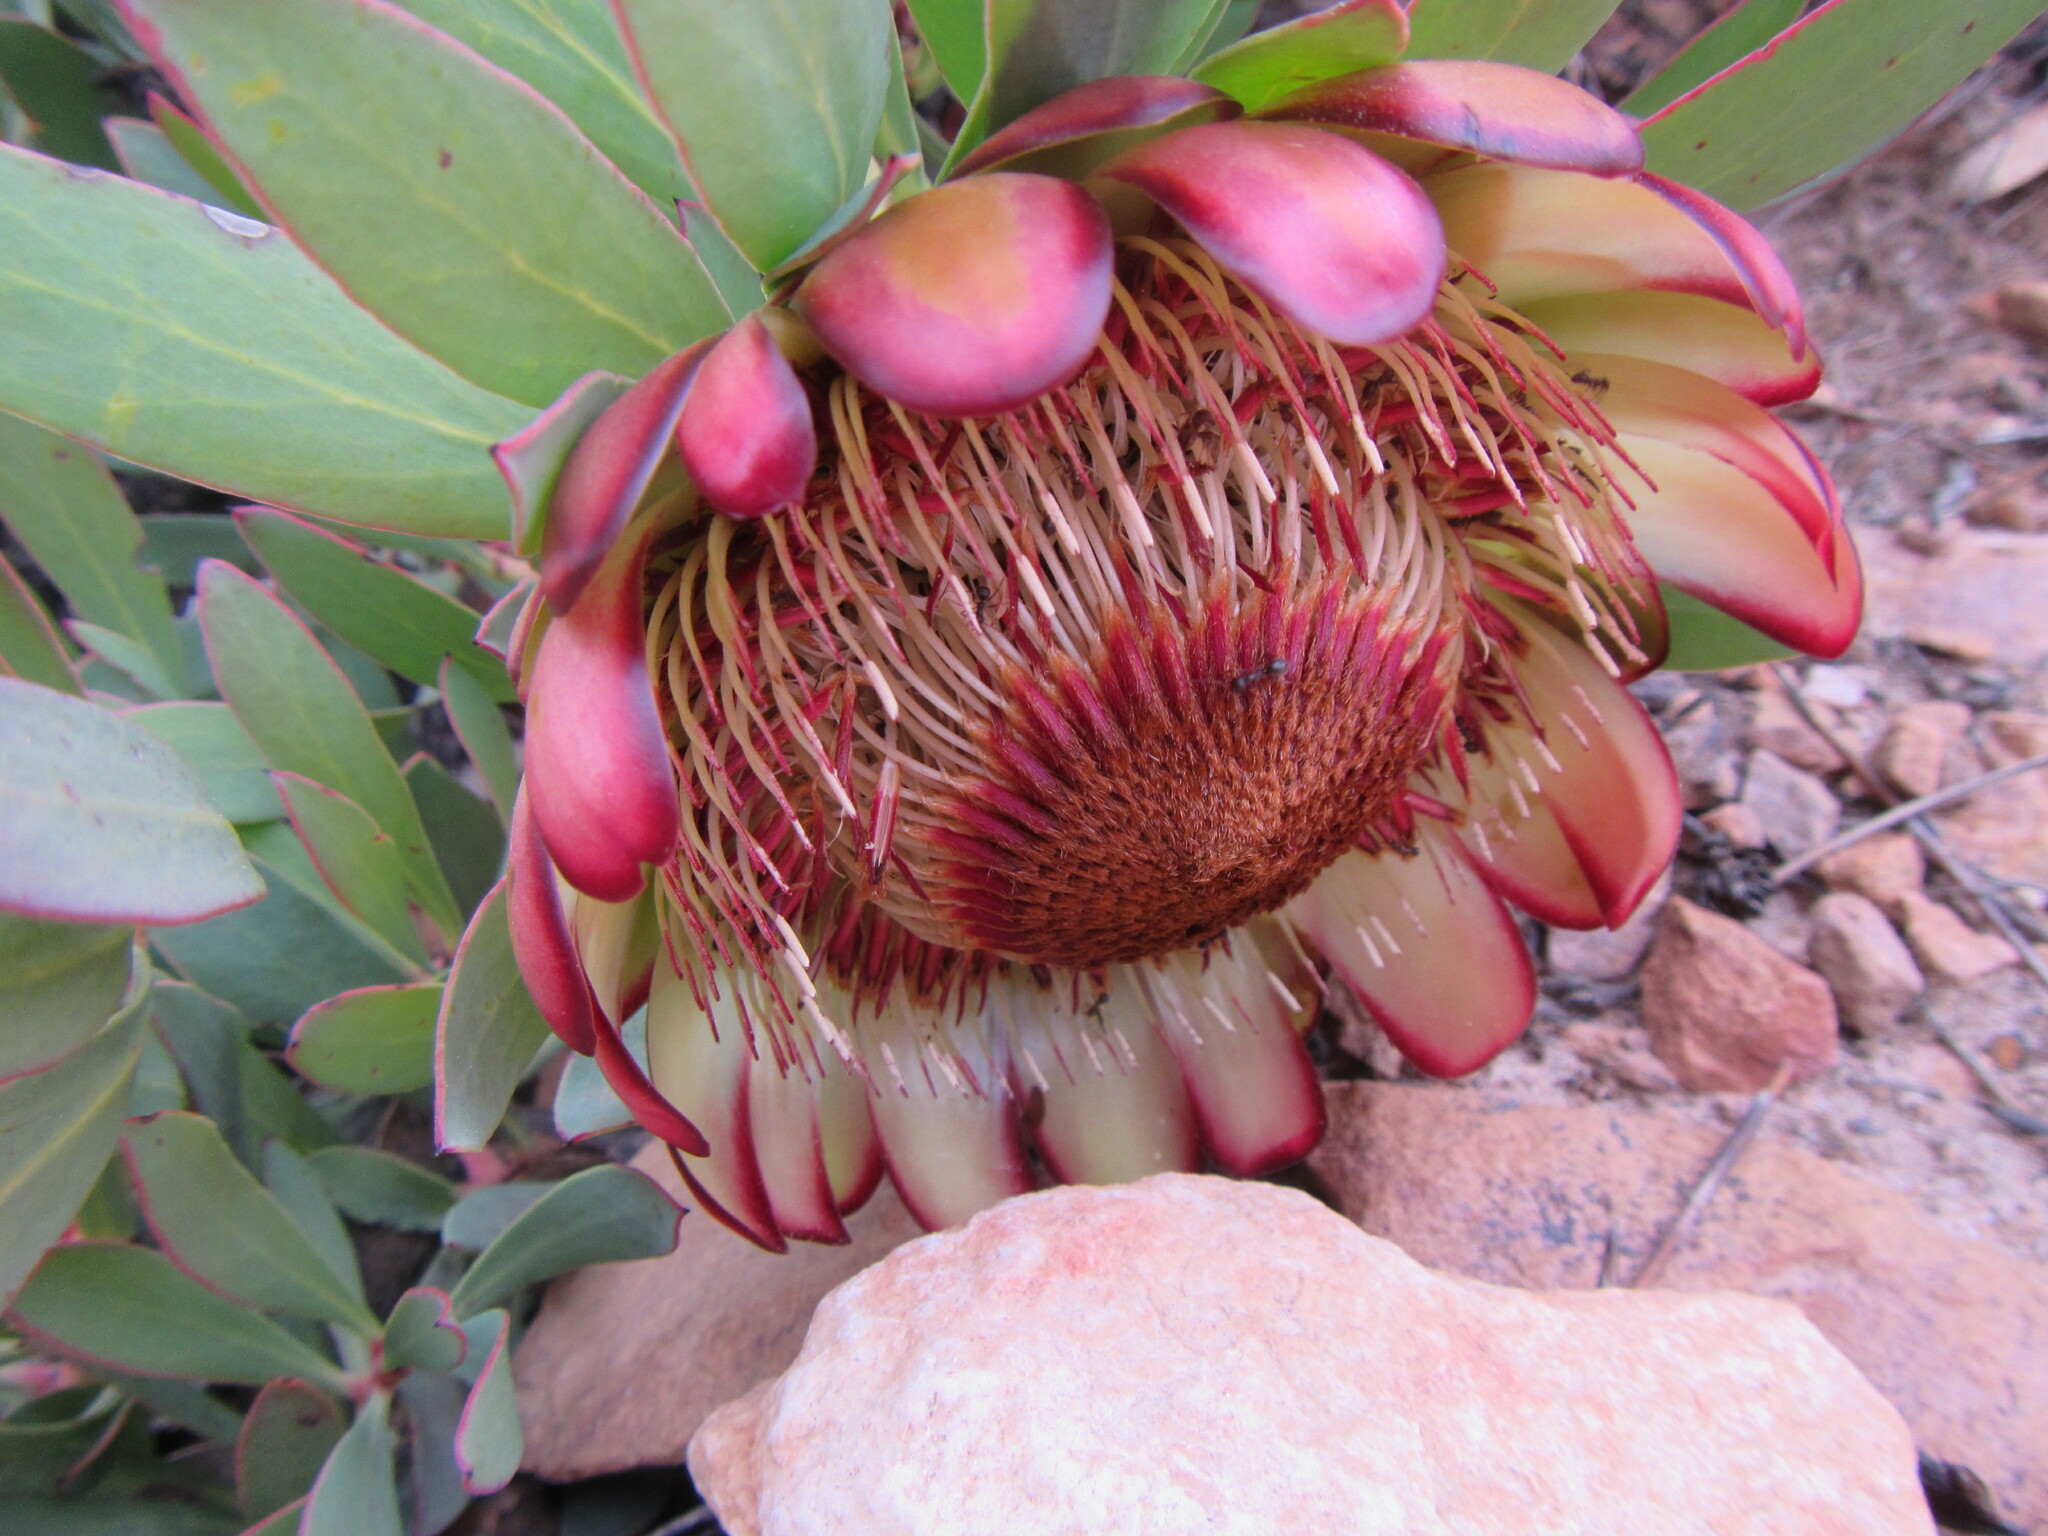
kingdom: Plantae
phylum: Tracheophyta
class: Magnoliopsida
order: Proteales
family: Proteaceae
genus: Protea
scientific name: Protea effusa
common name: Scarlet sugarbush
